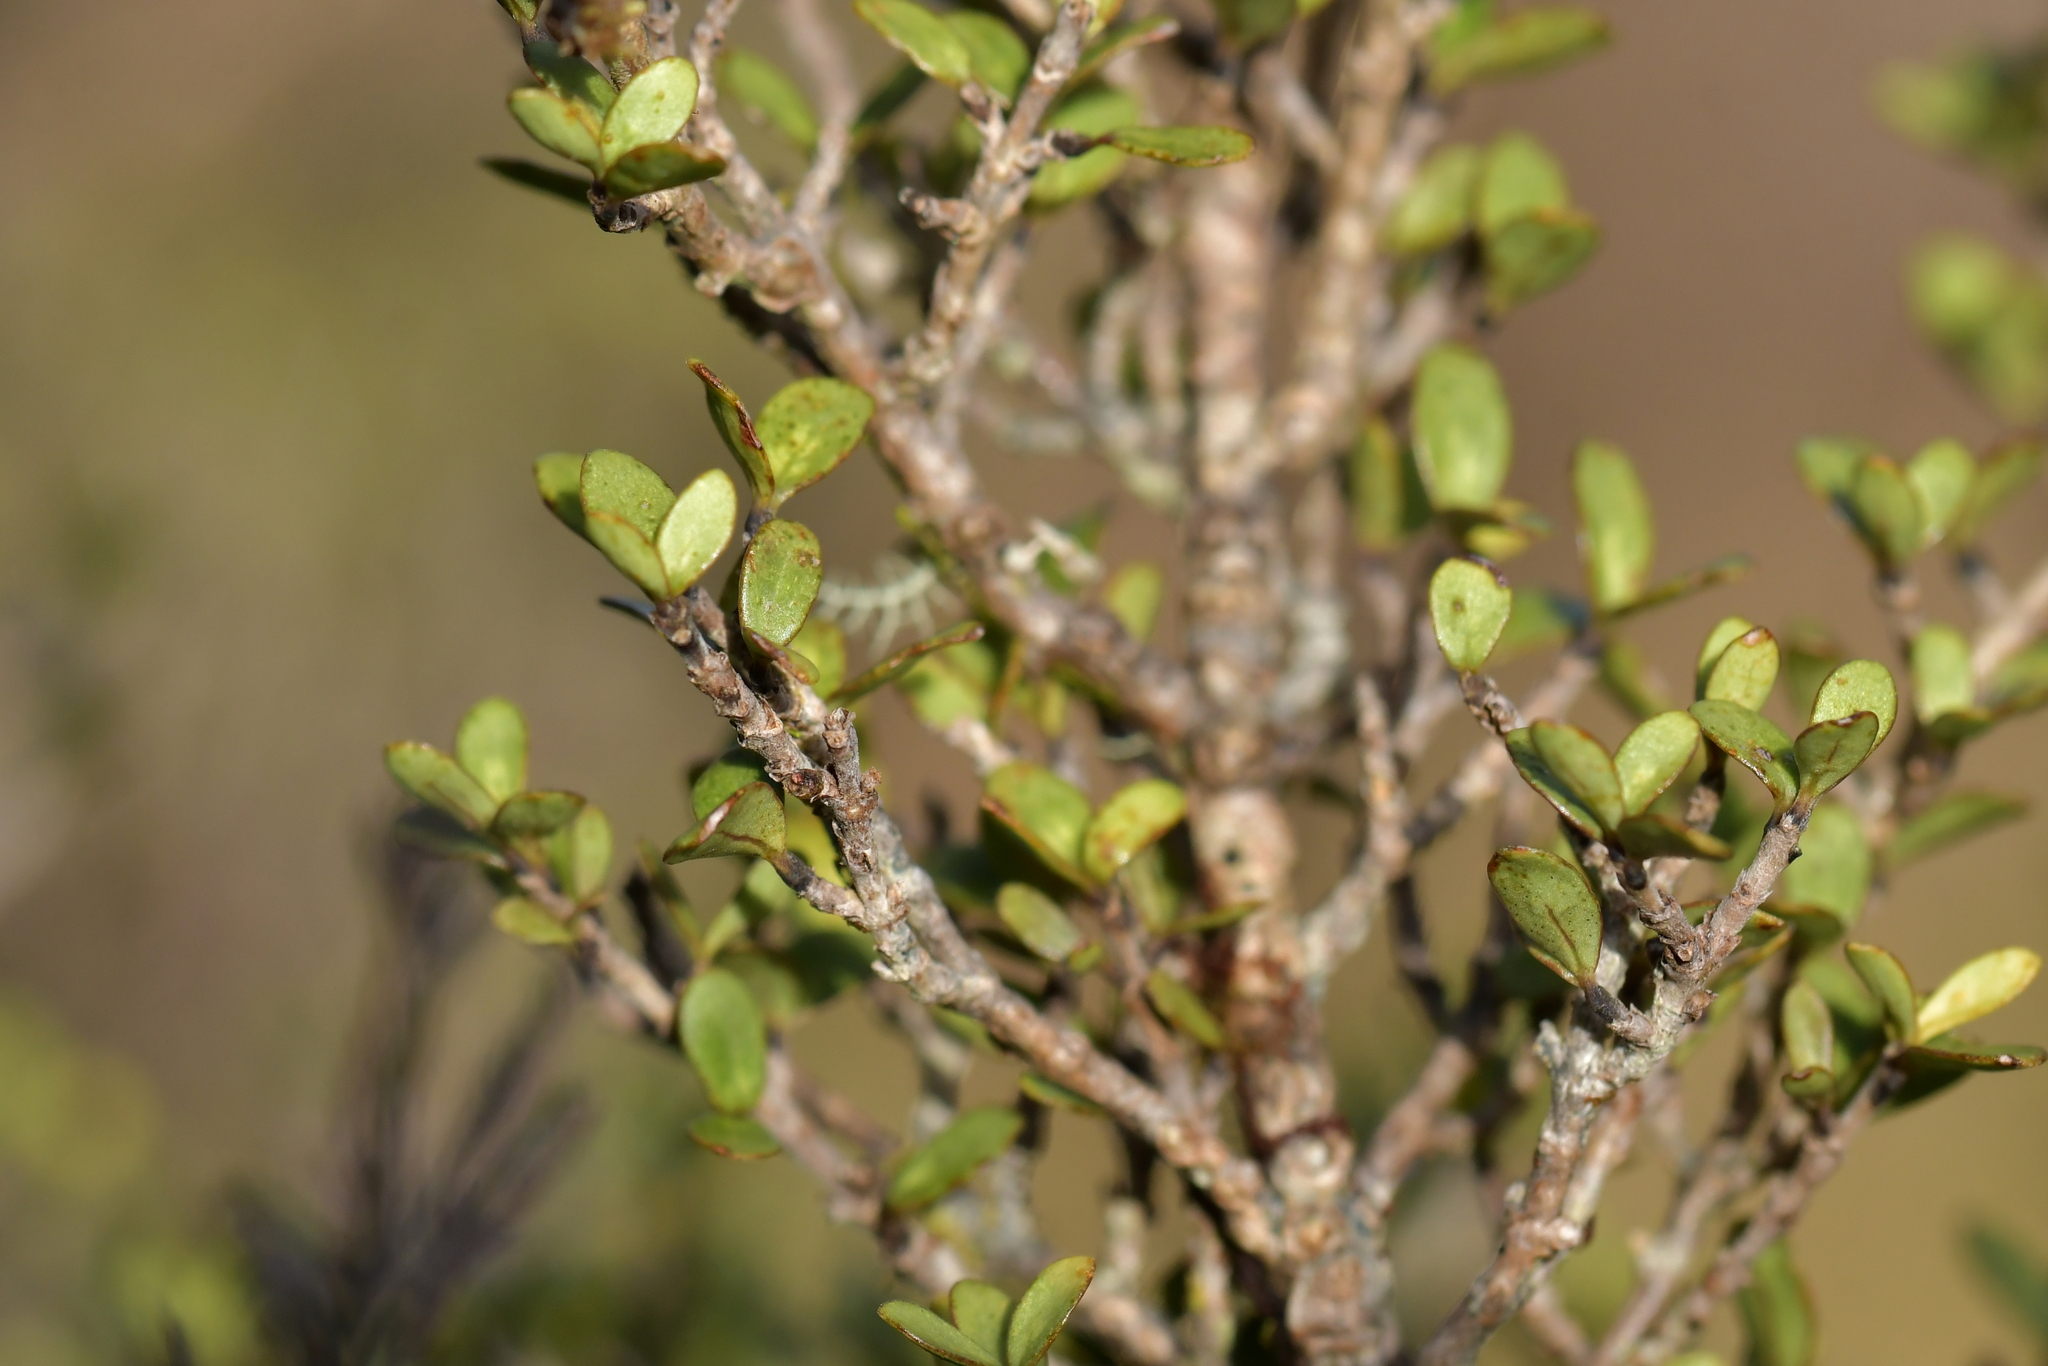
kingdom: Plantae
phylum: Tracheophyta
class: Magnoliopsida
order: Gentianales
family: Rubiaceae
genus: Coprosma
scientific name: Coprosma dumosa
